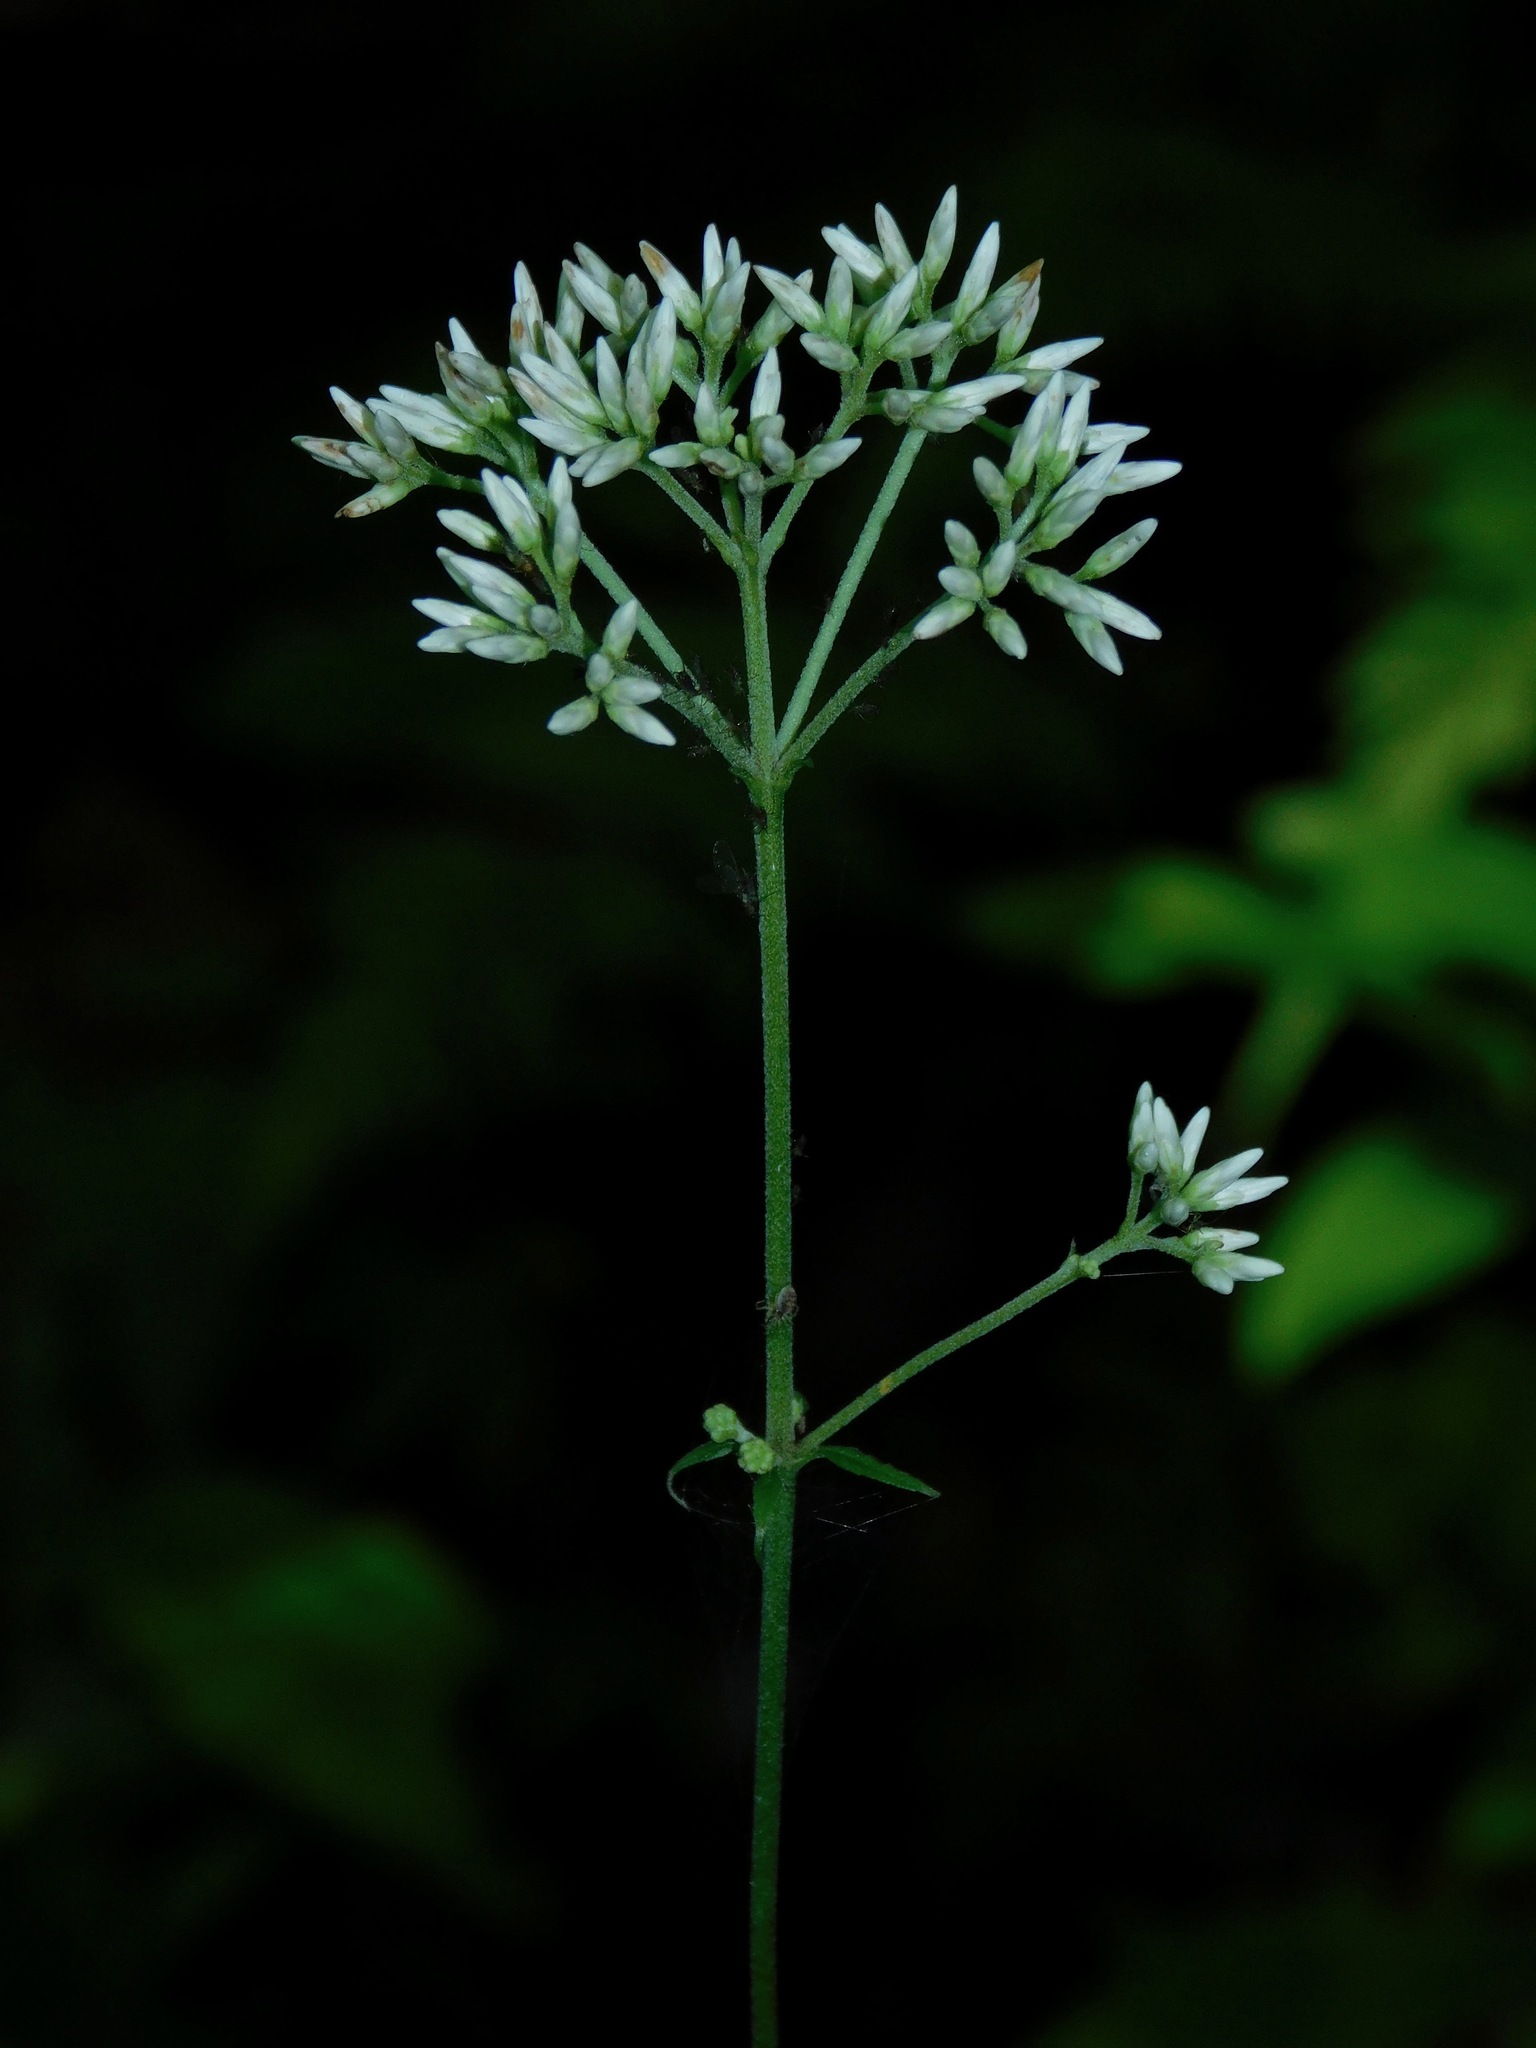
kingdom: Plantae
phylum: Tracheophyta
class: Magnoliopsida
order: Asterales
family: Asteraceae
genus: Eutrochium
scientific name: Eutrochium purpureum
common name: Gravelroot
